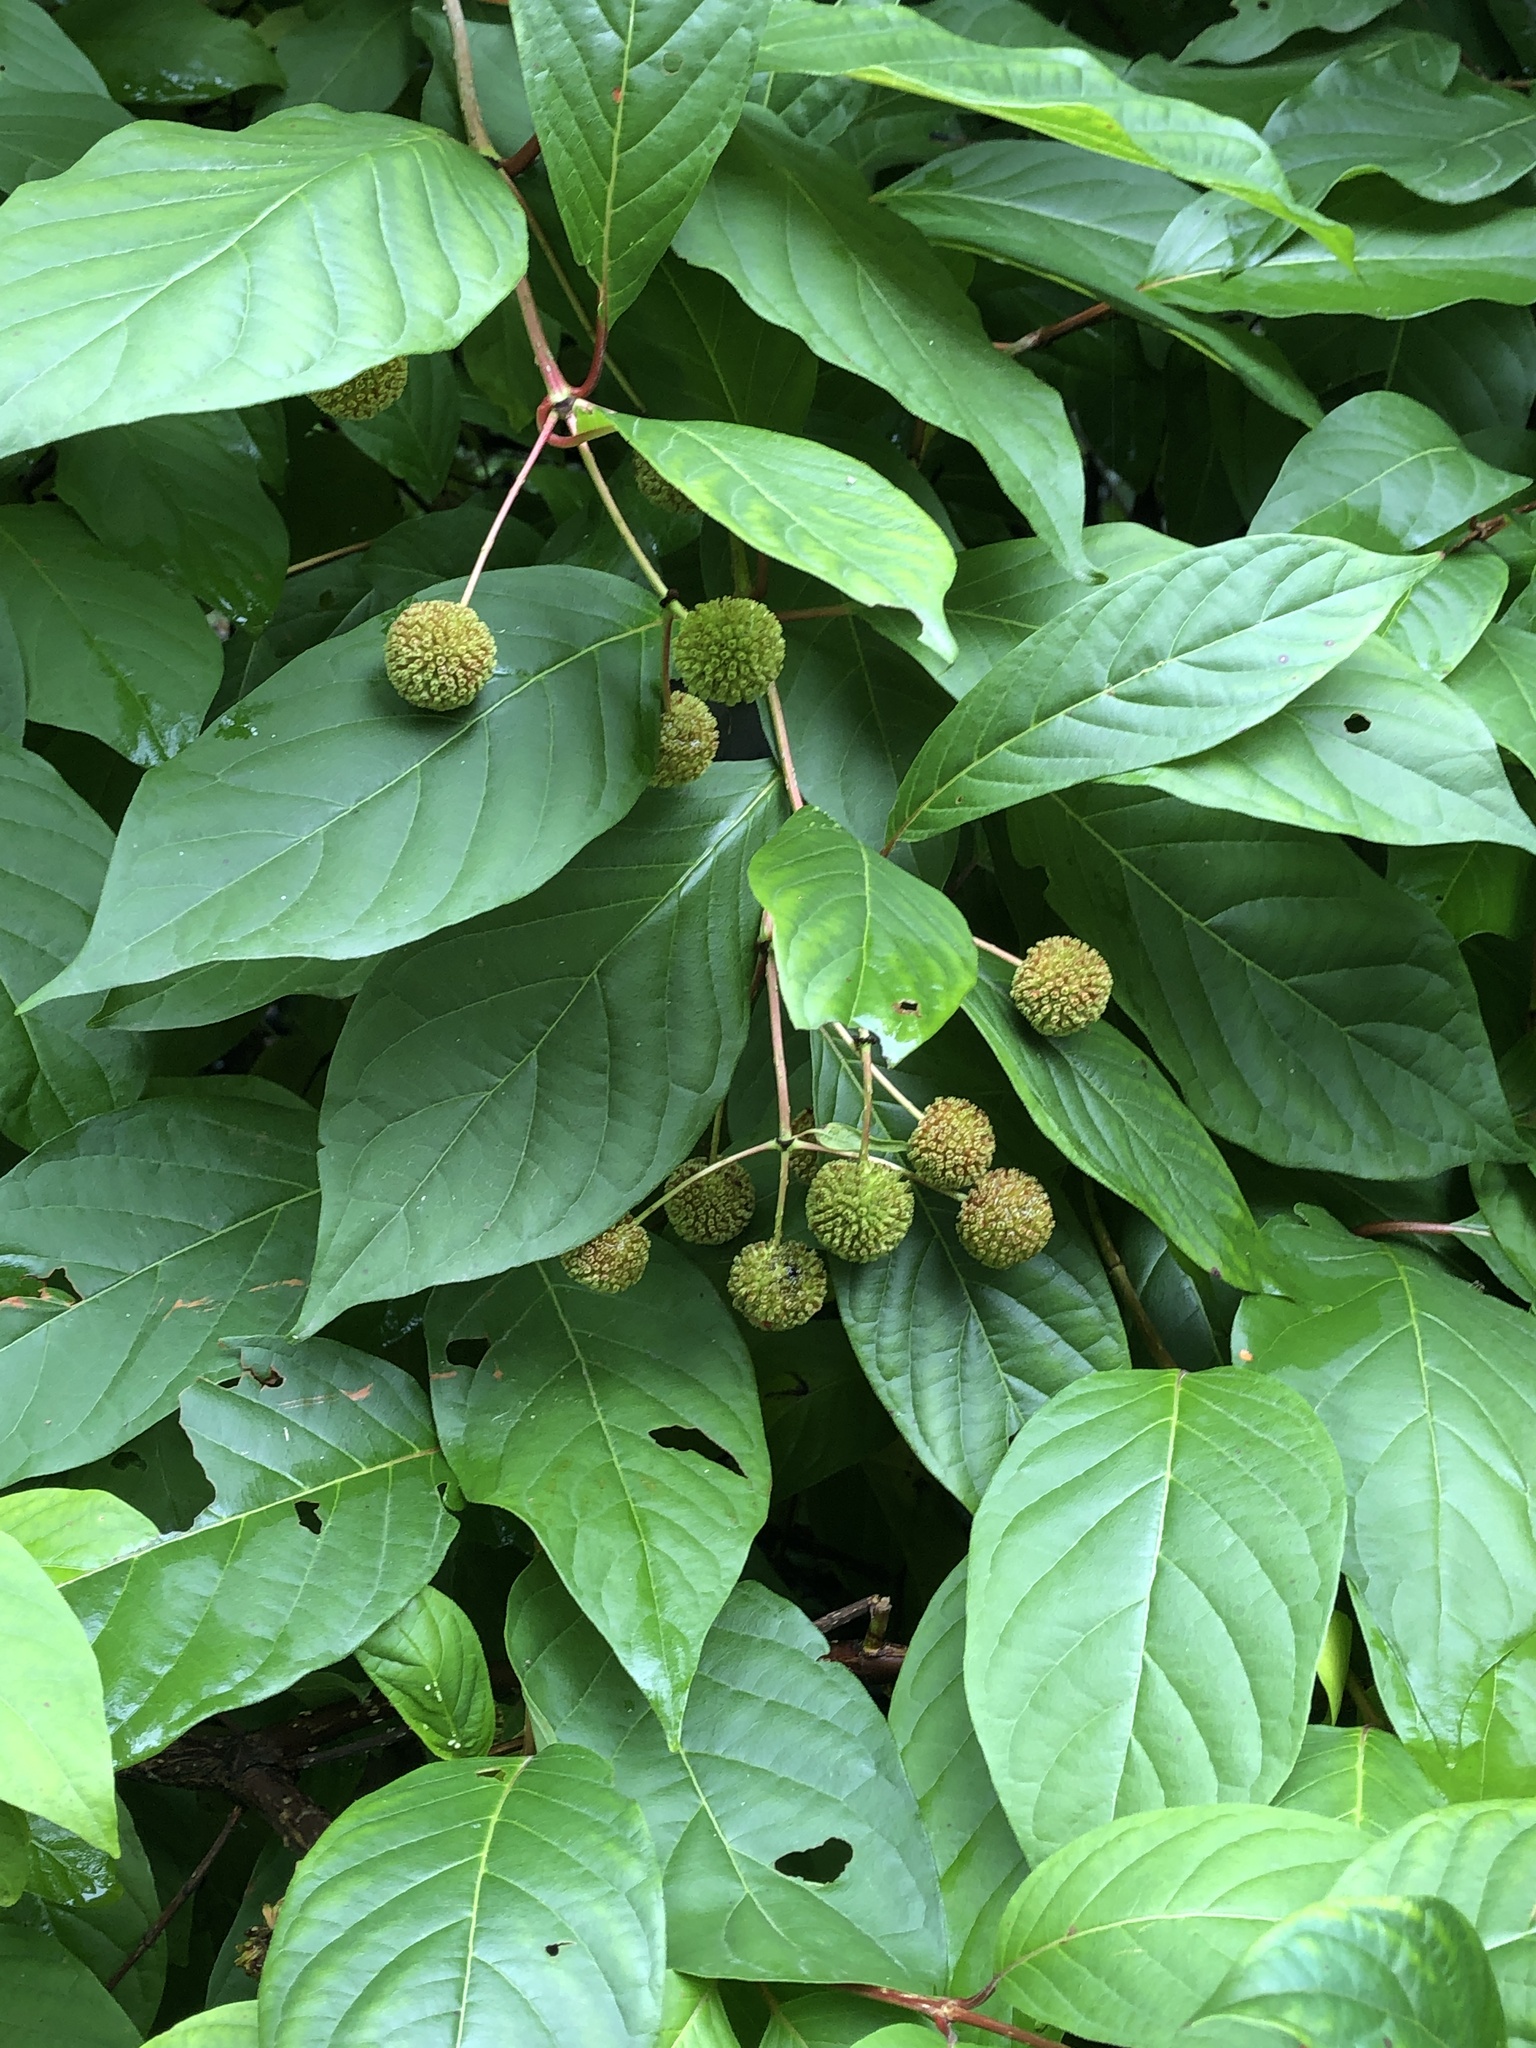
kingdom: Plantae
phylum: Tracheophyta
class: Magnoliopsida
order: Gentianales
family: Rubiaceae
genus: Cephalanthus
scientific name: Cephalanthus occidentalis
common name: Button-willow
